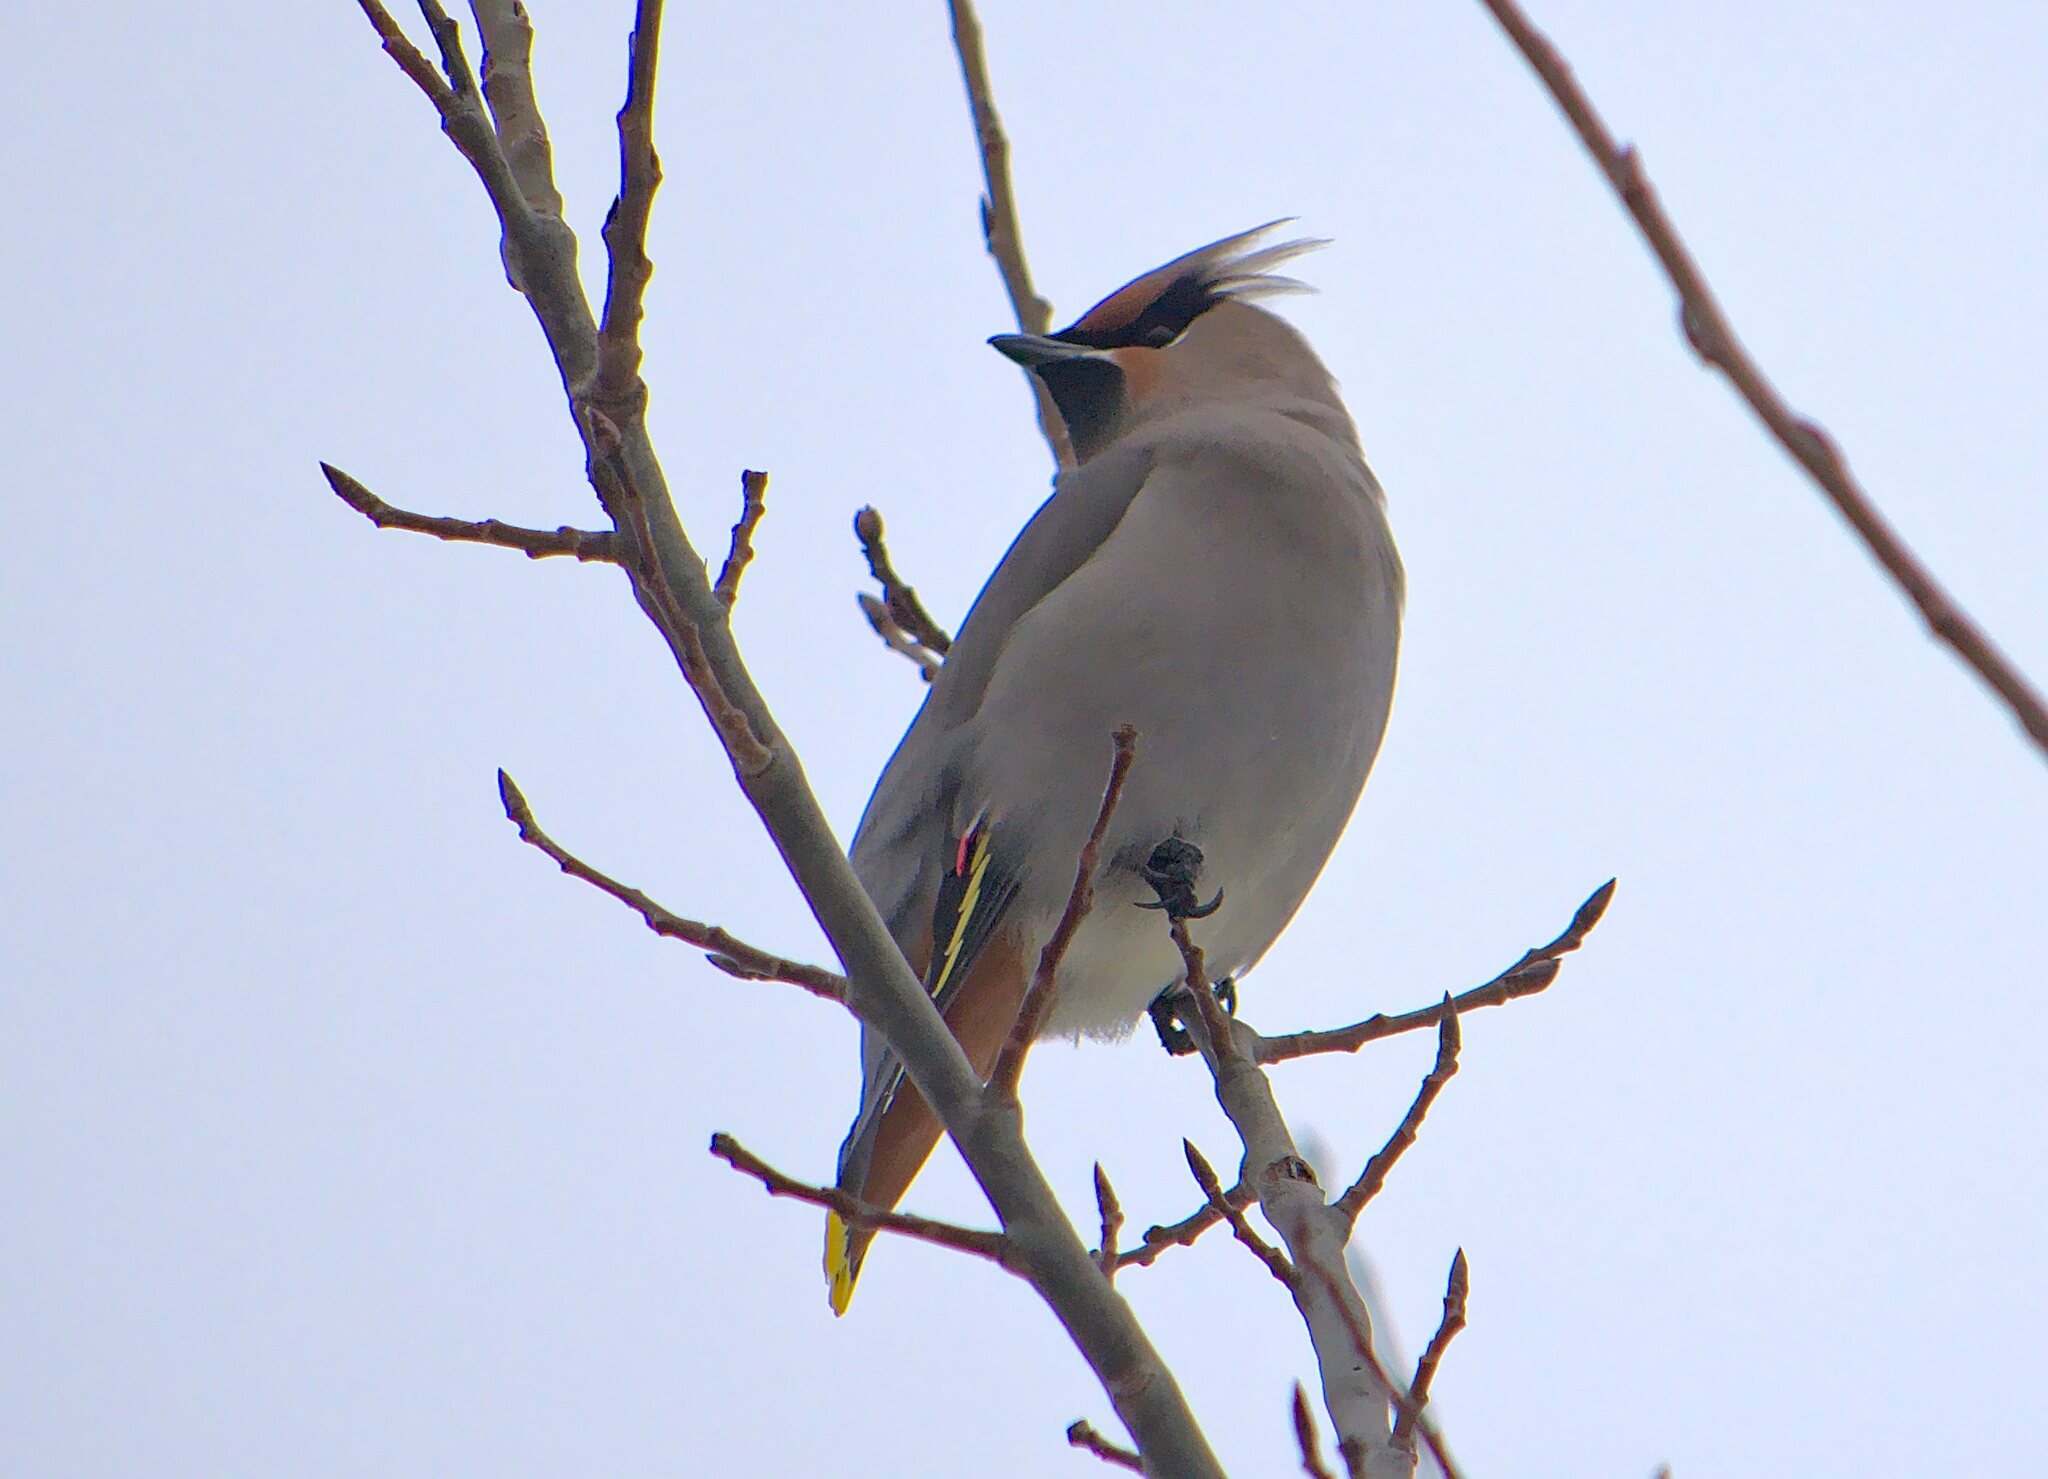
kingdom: Animalia
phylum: Chordata
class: Aves
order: Passeriformes
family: Bombycillidae
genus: Bombycilla
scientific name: Bombycilla garrulus
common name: Bohemian waxwing
